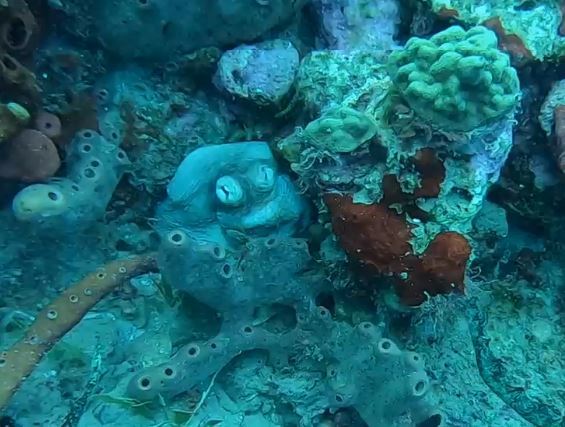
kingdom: Animalia
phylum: Mollusca
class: Cephalopoda
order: Octopoda
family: Octopodidae
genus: Octopus
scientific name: Octopus insularis
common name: Brazil reef octopus
